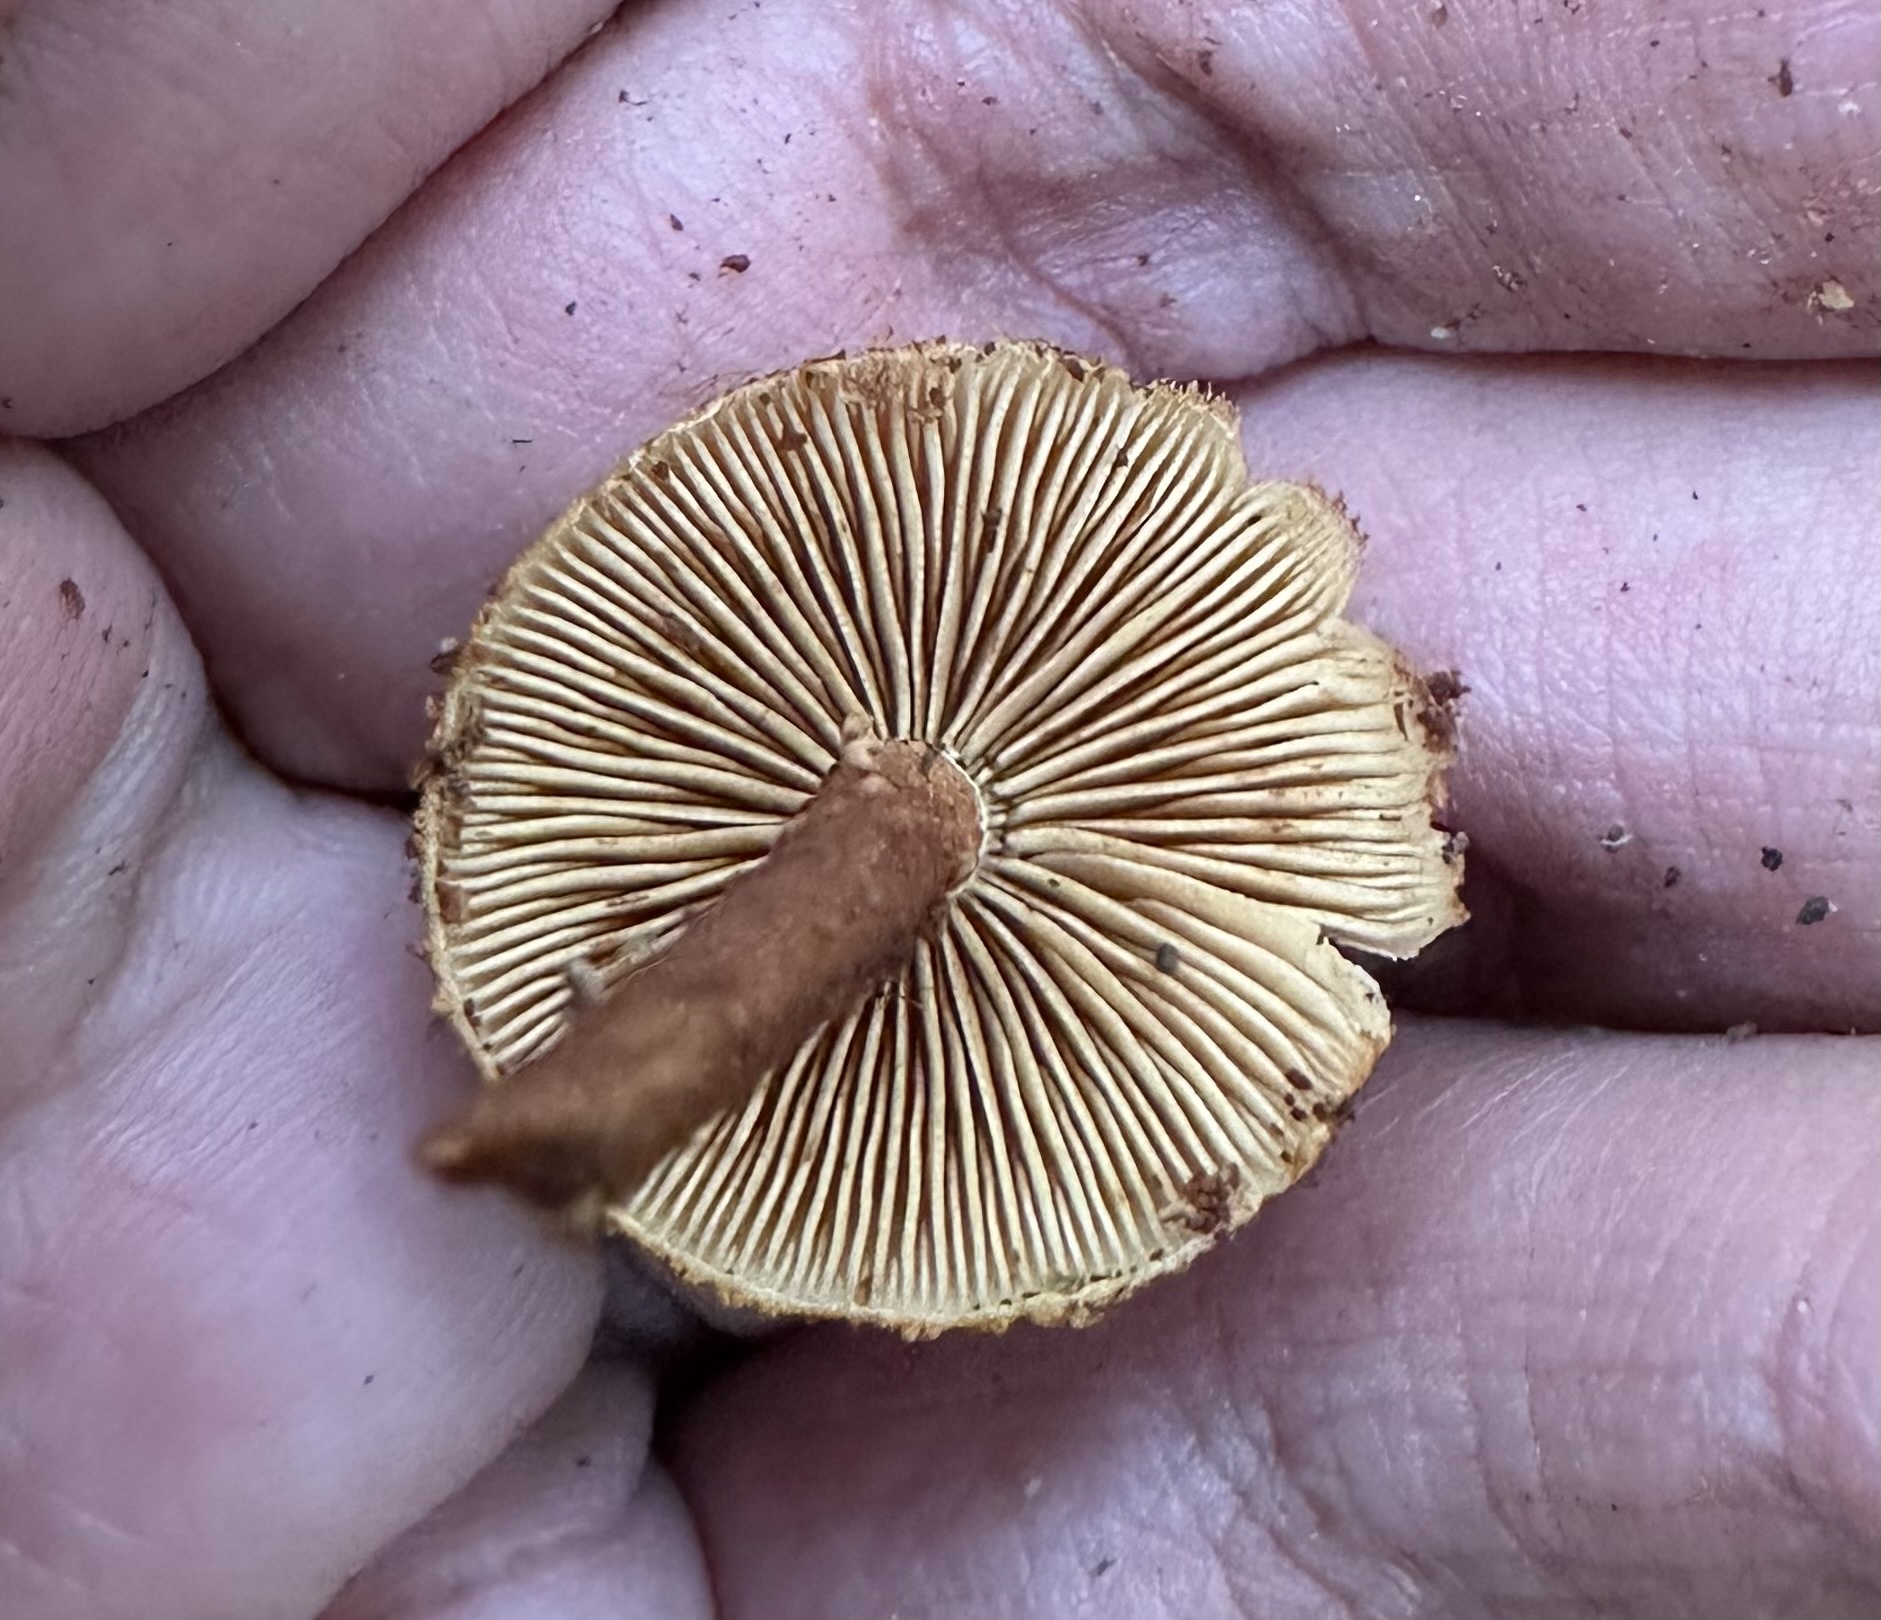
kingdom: Fungi
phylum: Basidiomycota
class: Agaricomycetes
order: Agaricales
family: Tubariaceae
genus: Flammulaster
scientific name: Flammulaster erinaceellus
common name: Powder-scale pholiota
